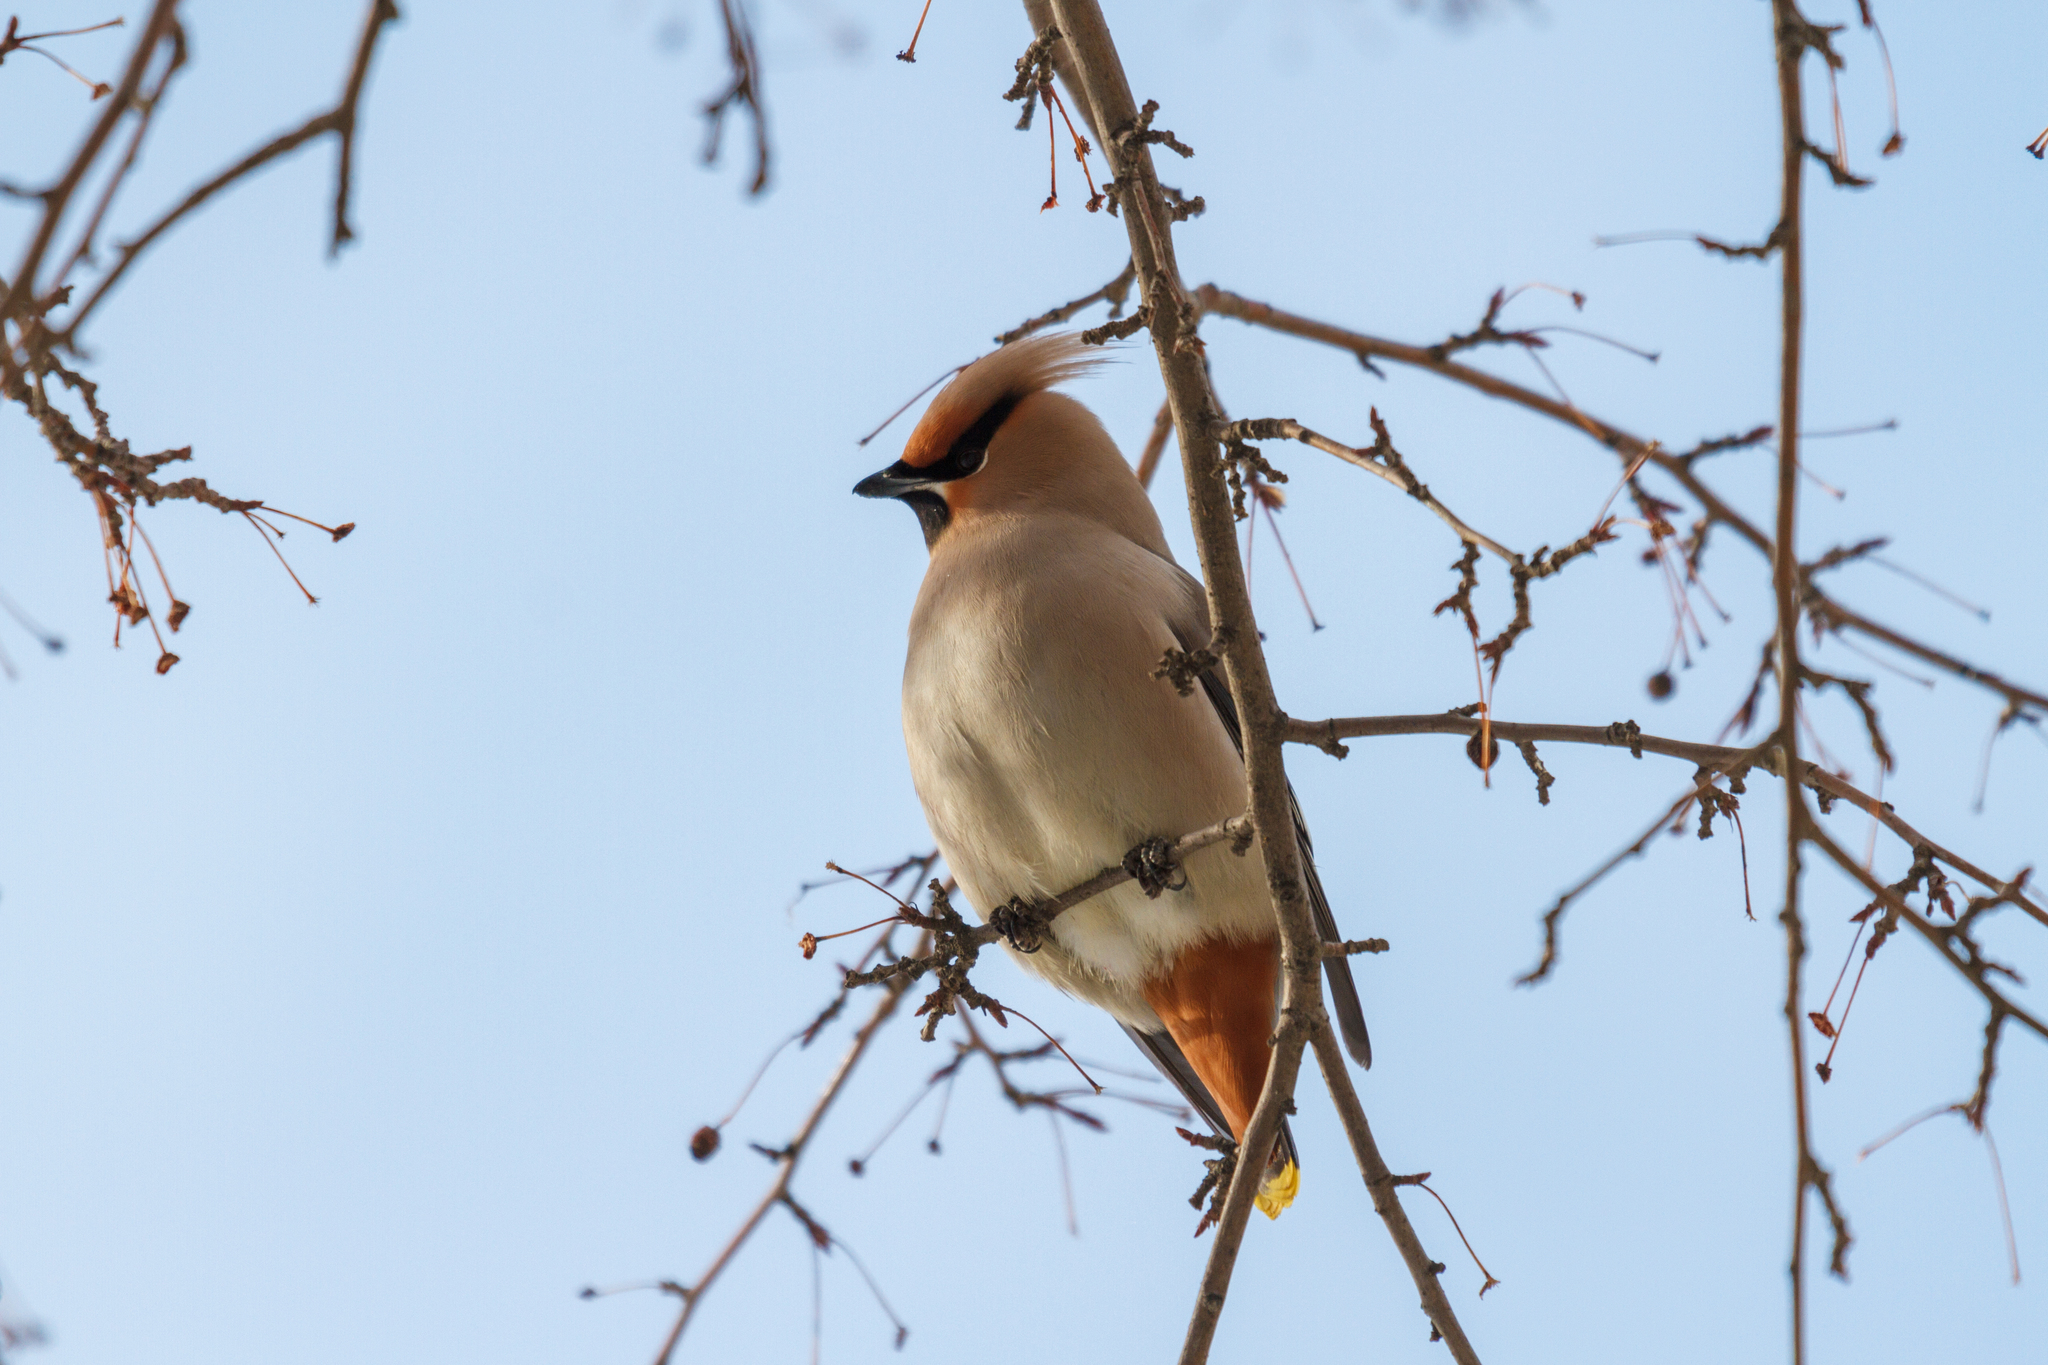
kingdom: Animalia
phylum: Chordata
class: Aves
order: Passeriformes
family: Bombycillidae
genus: Bombycilla
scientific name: Bombycilla garrulus
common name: Bohemian waxwing
